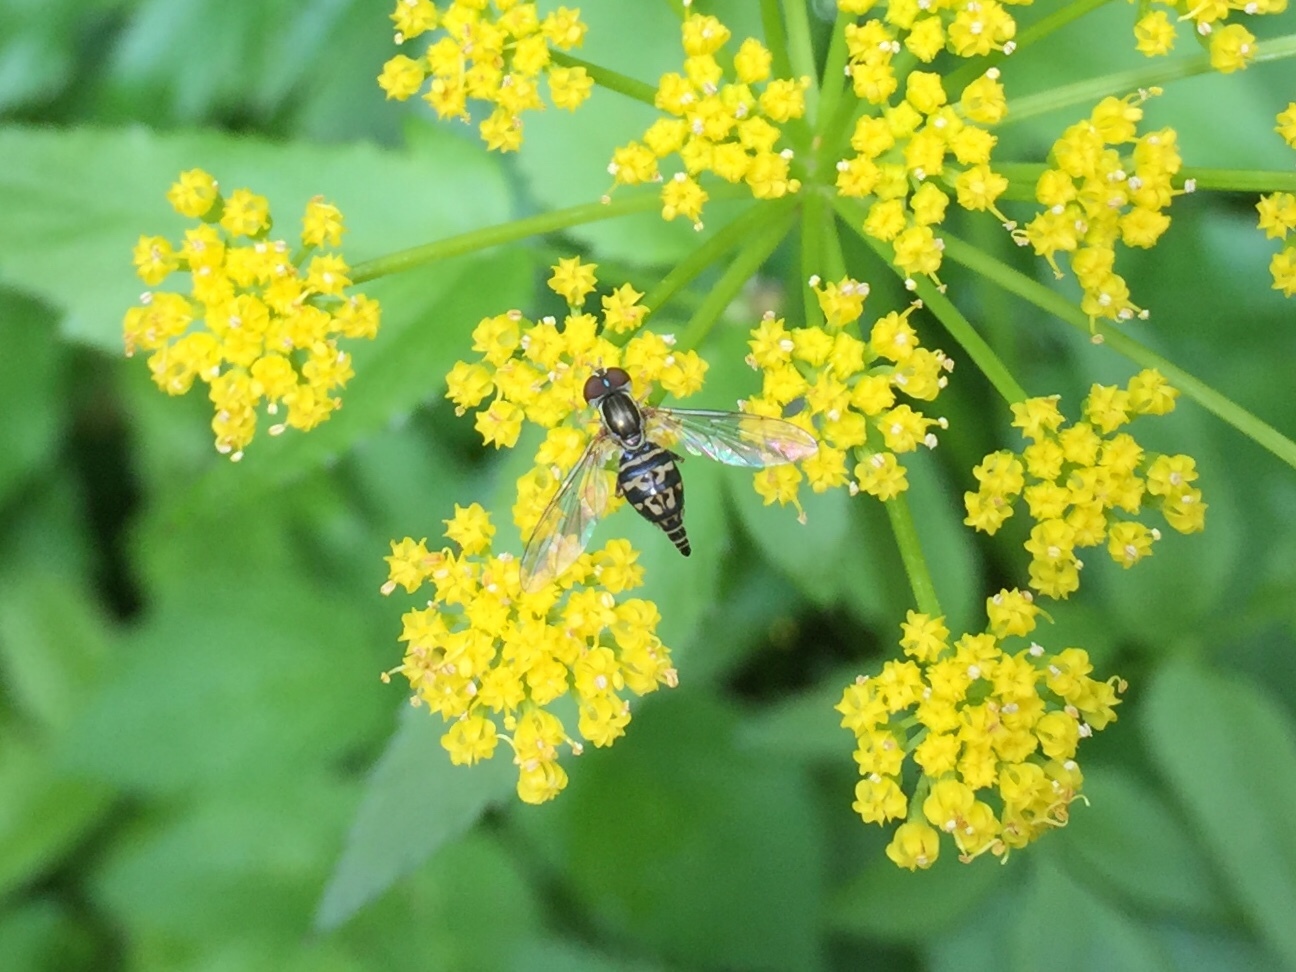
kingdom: Animalia
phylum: Arthropoda
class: Insecta
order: Diptera
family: Syrphidae
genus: Toxomerus
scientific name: Toxomerus geminatus
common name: Eastern calligrapher
